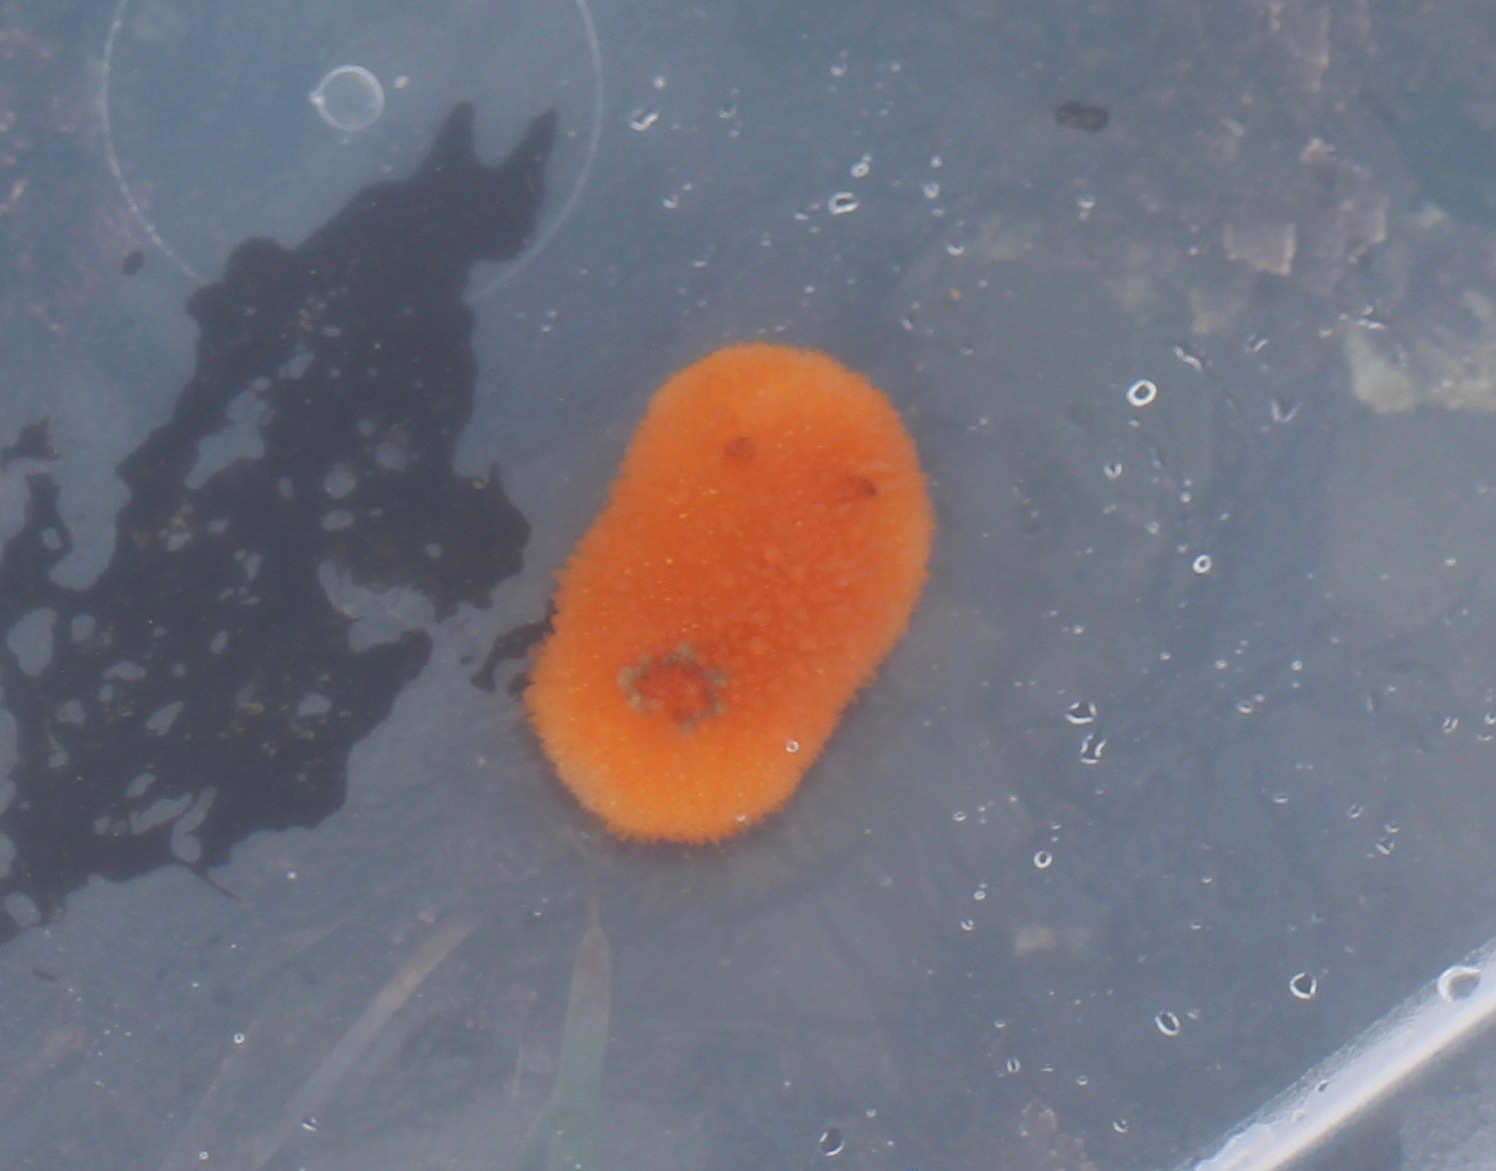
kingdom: Animalia
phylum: Mollusca
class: Gastropoda
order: Nudibranchia
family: Onchidorididae
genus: Acanthodoris
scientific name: Acanthodoris lutea
